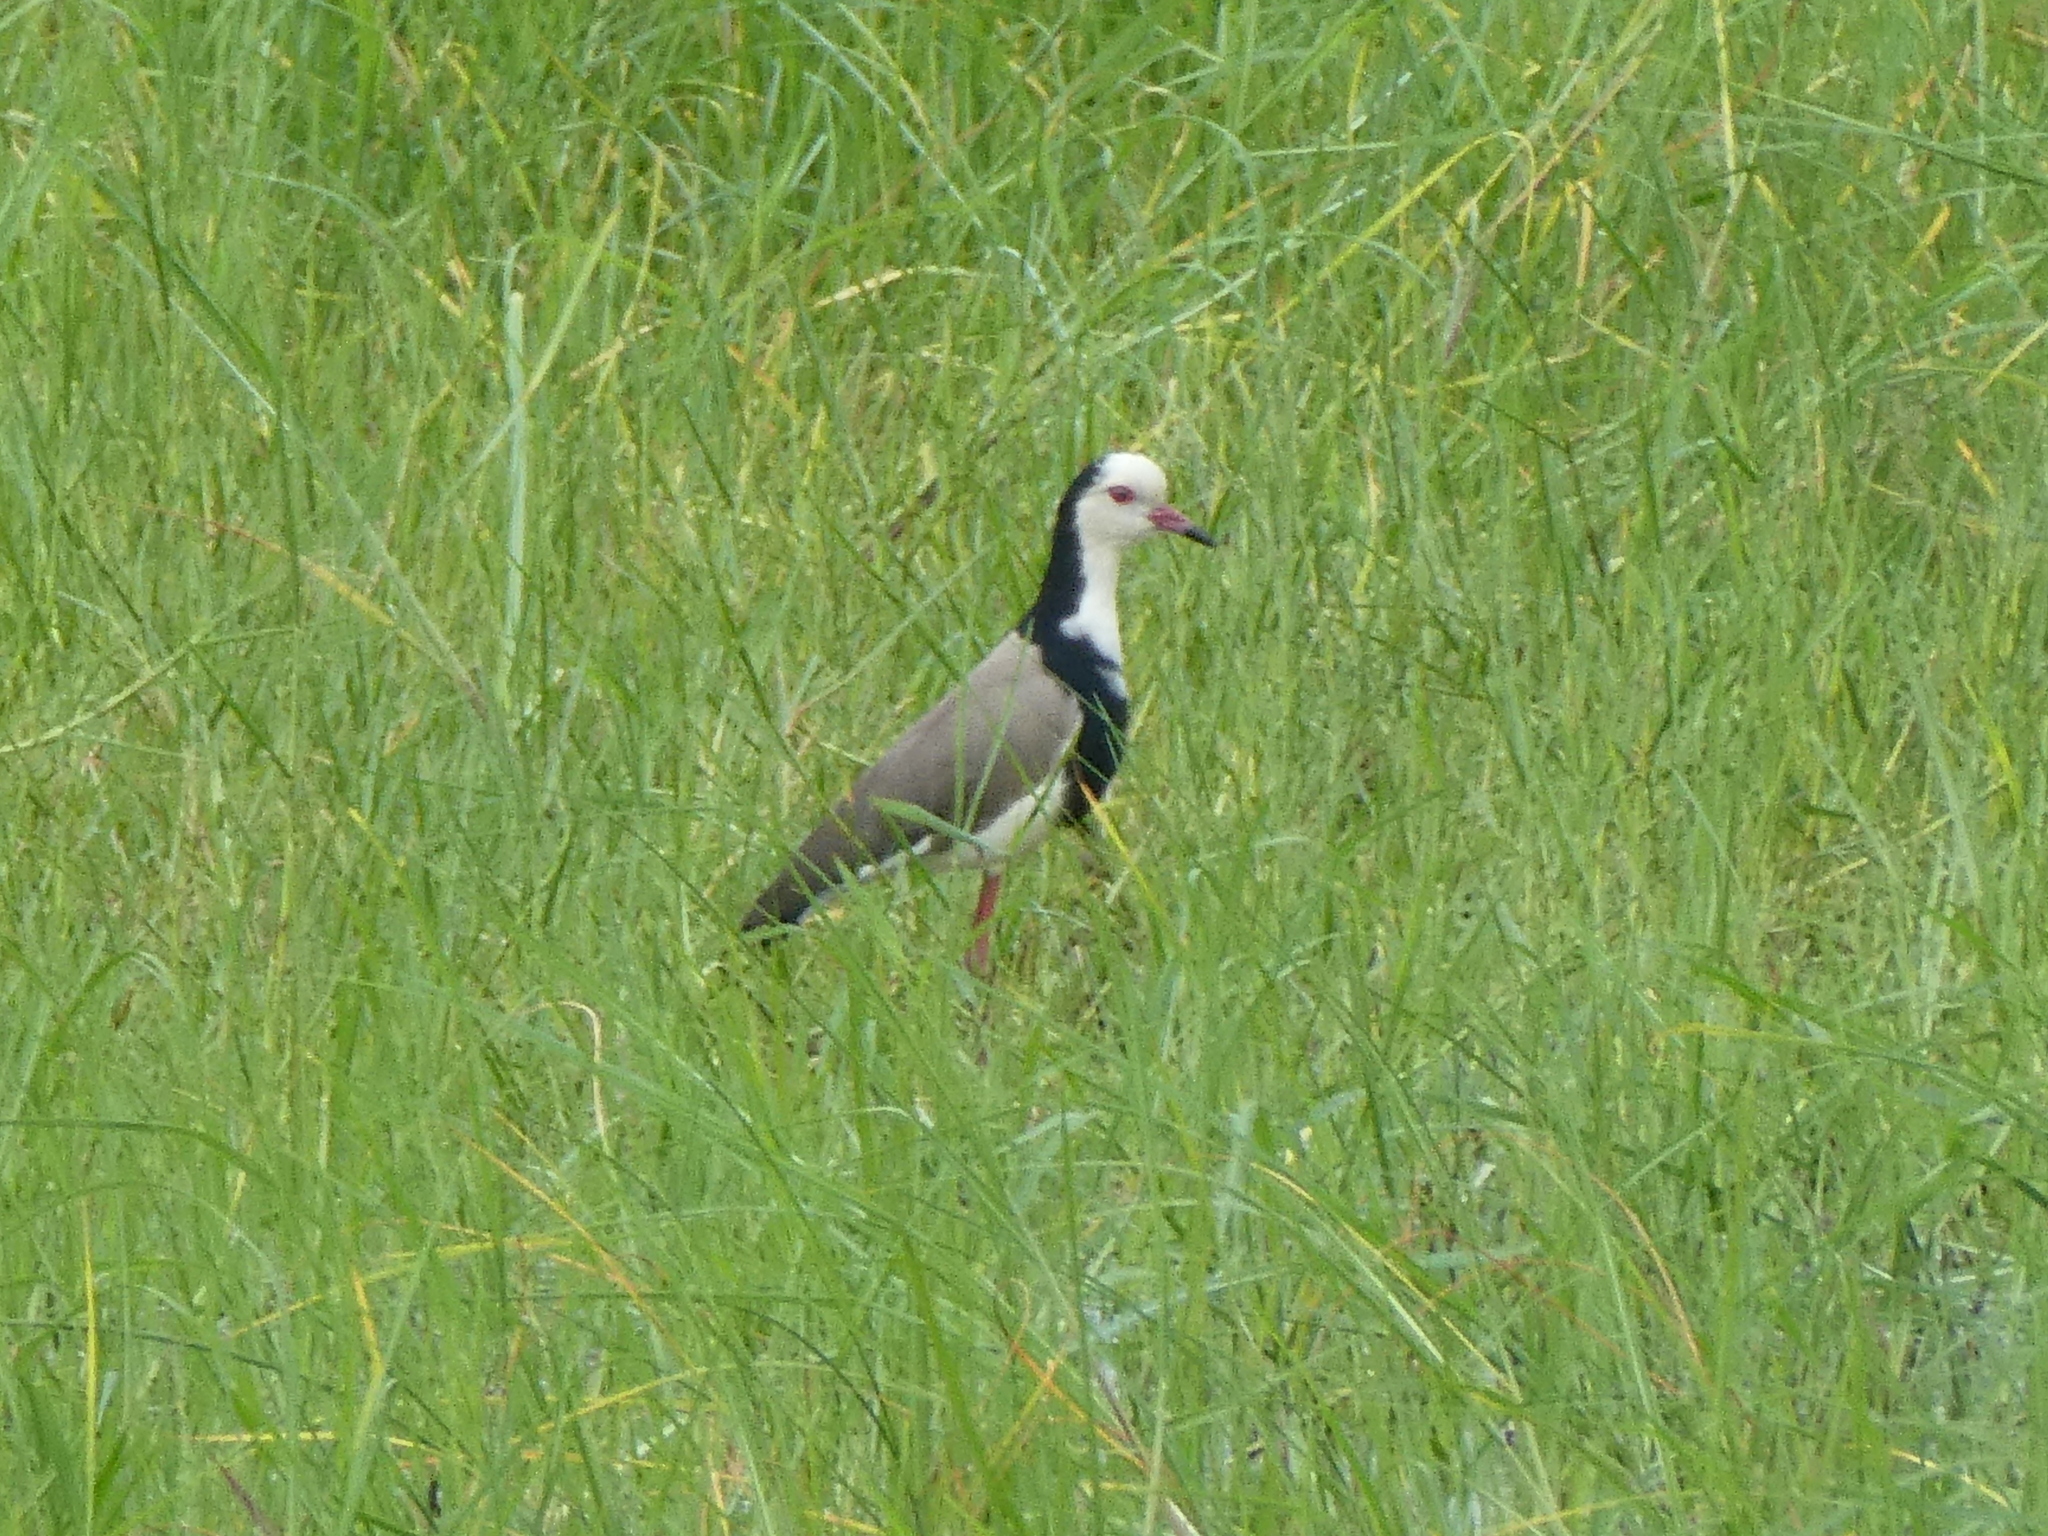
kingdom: Animalia
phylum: Chordata
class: Aves
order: Charadriiformes
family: Charadriidae
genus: Vanellus
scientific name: Vanellus crassirostris
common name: Long-toed lapwing
